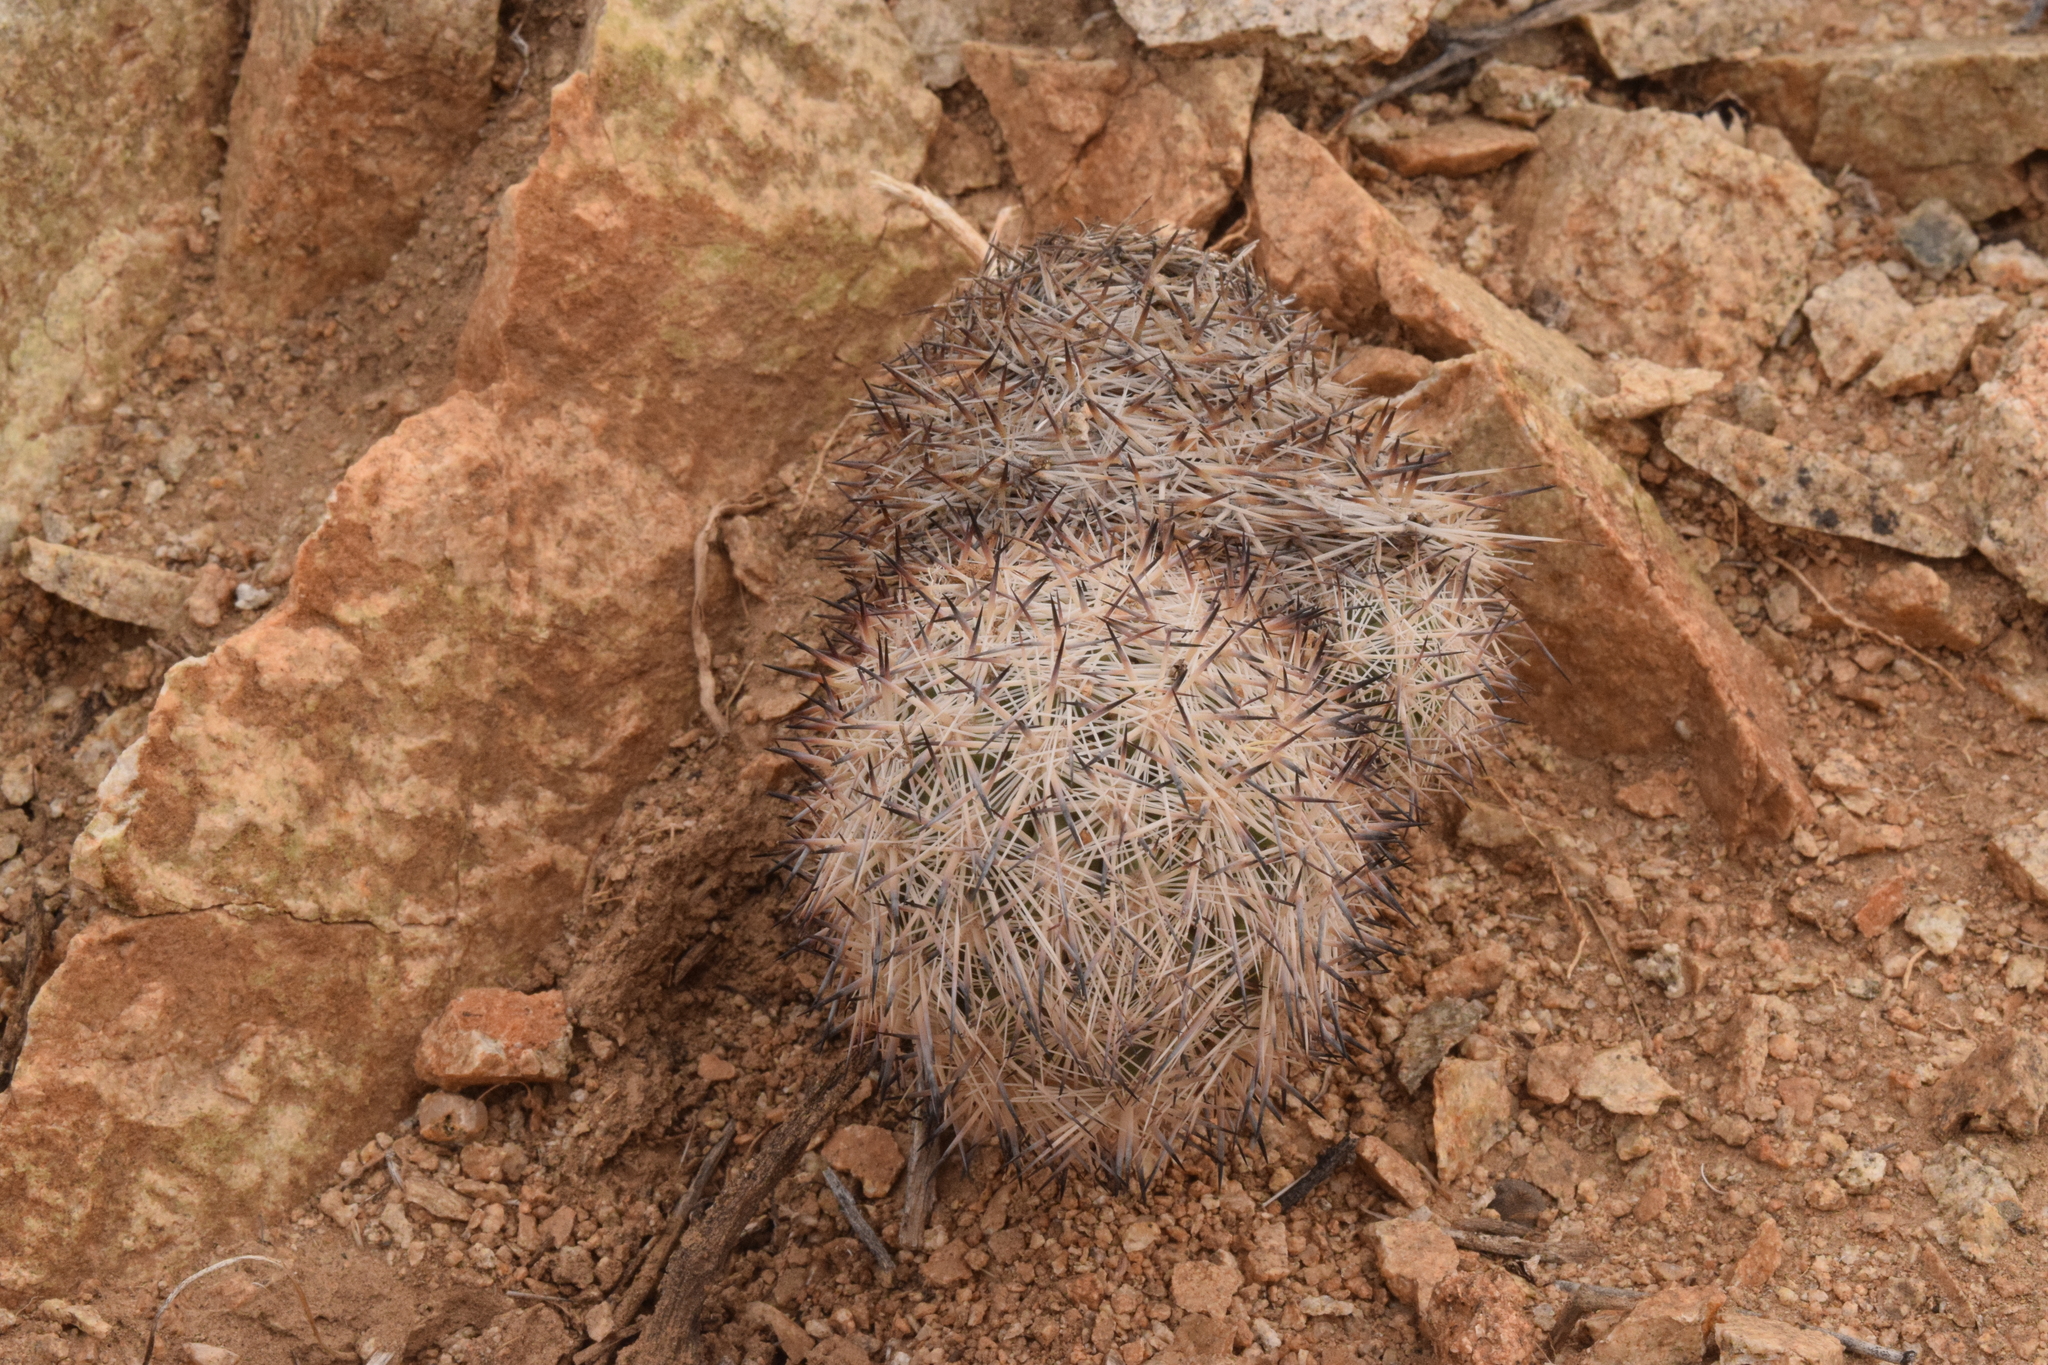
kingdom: Plantae
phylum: Tracheophyta
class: Magnoliopsida
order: Caryophyllales
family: Cactaceae
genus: Pelecyphora
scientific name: Pelecyphora alversonii
